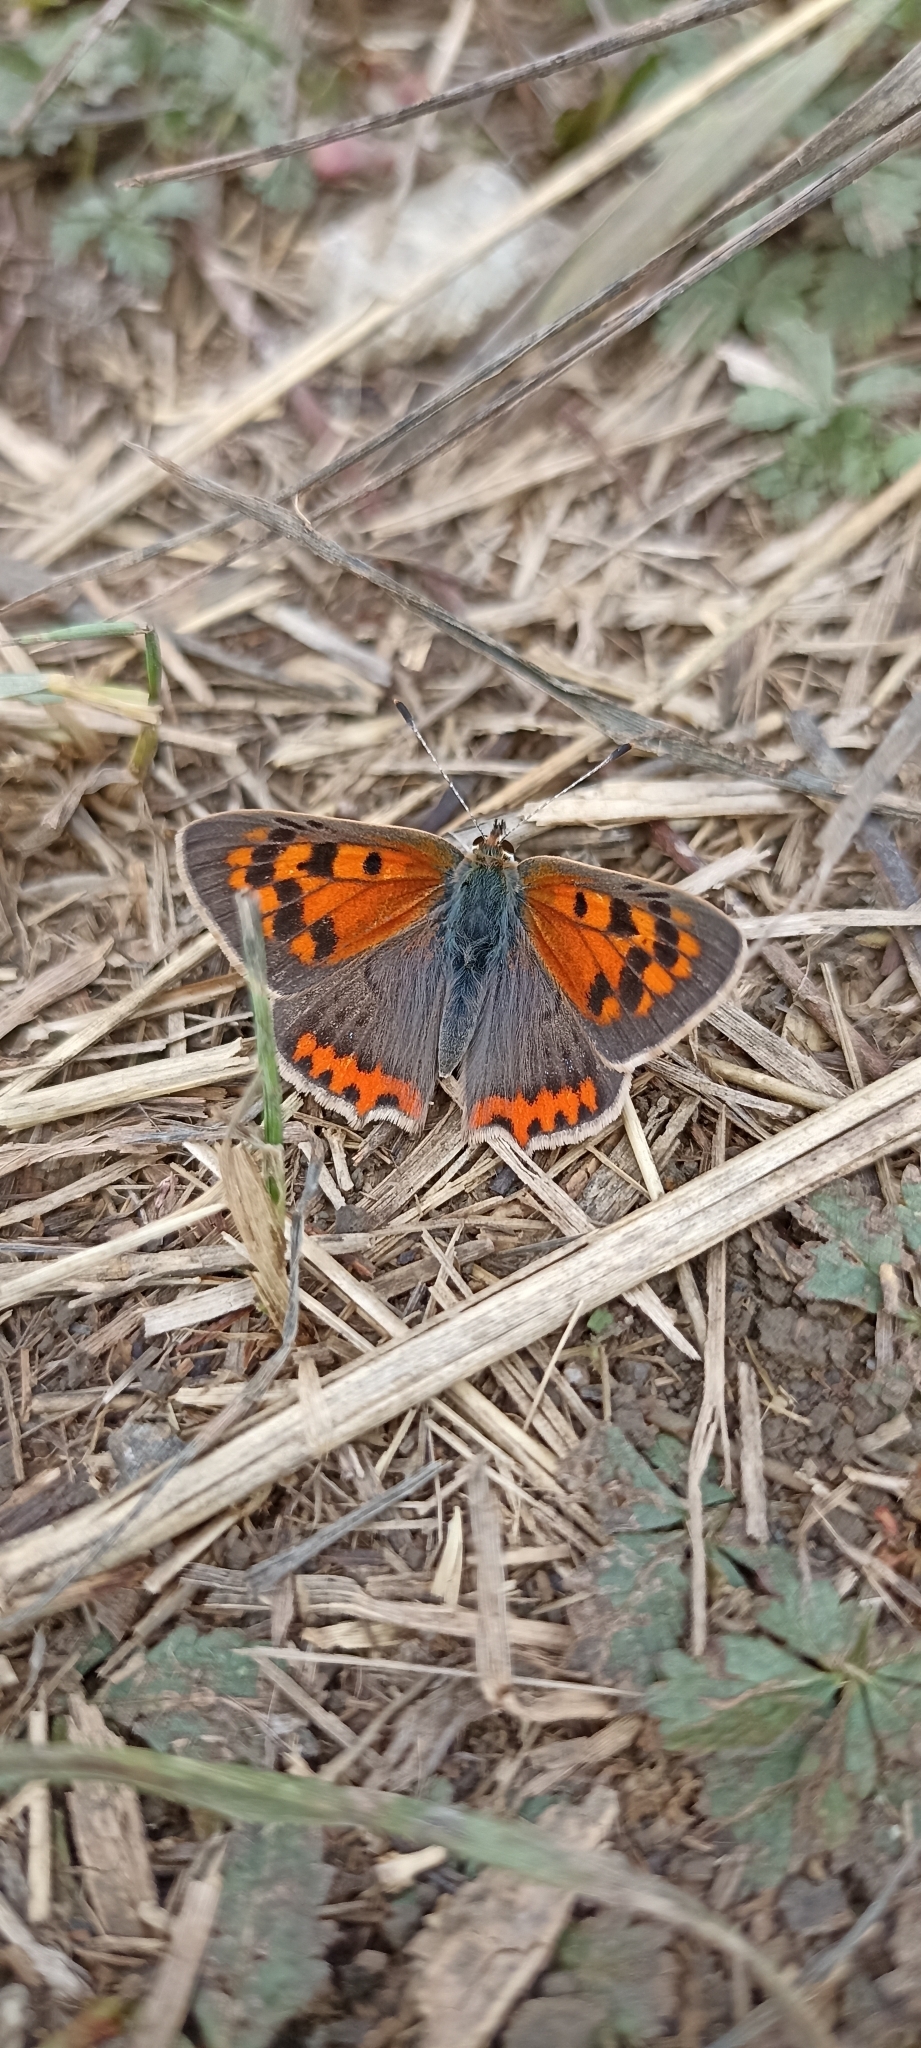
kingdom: Animalia
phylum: Arthropoda
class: Insecta
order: Lepidoptera
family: Lycaenidae
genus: Lycaena
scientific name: Lycaena phlaeas
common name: Small copper
